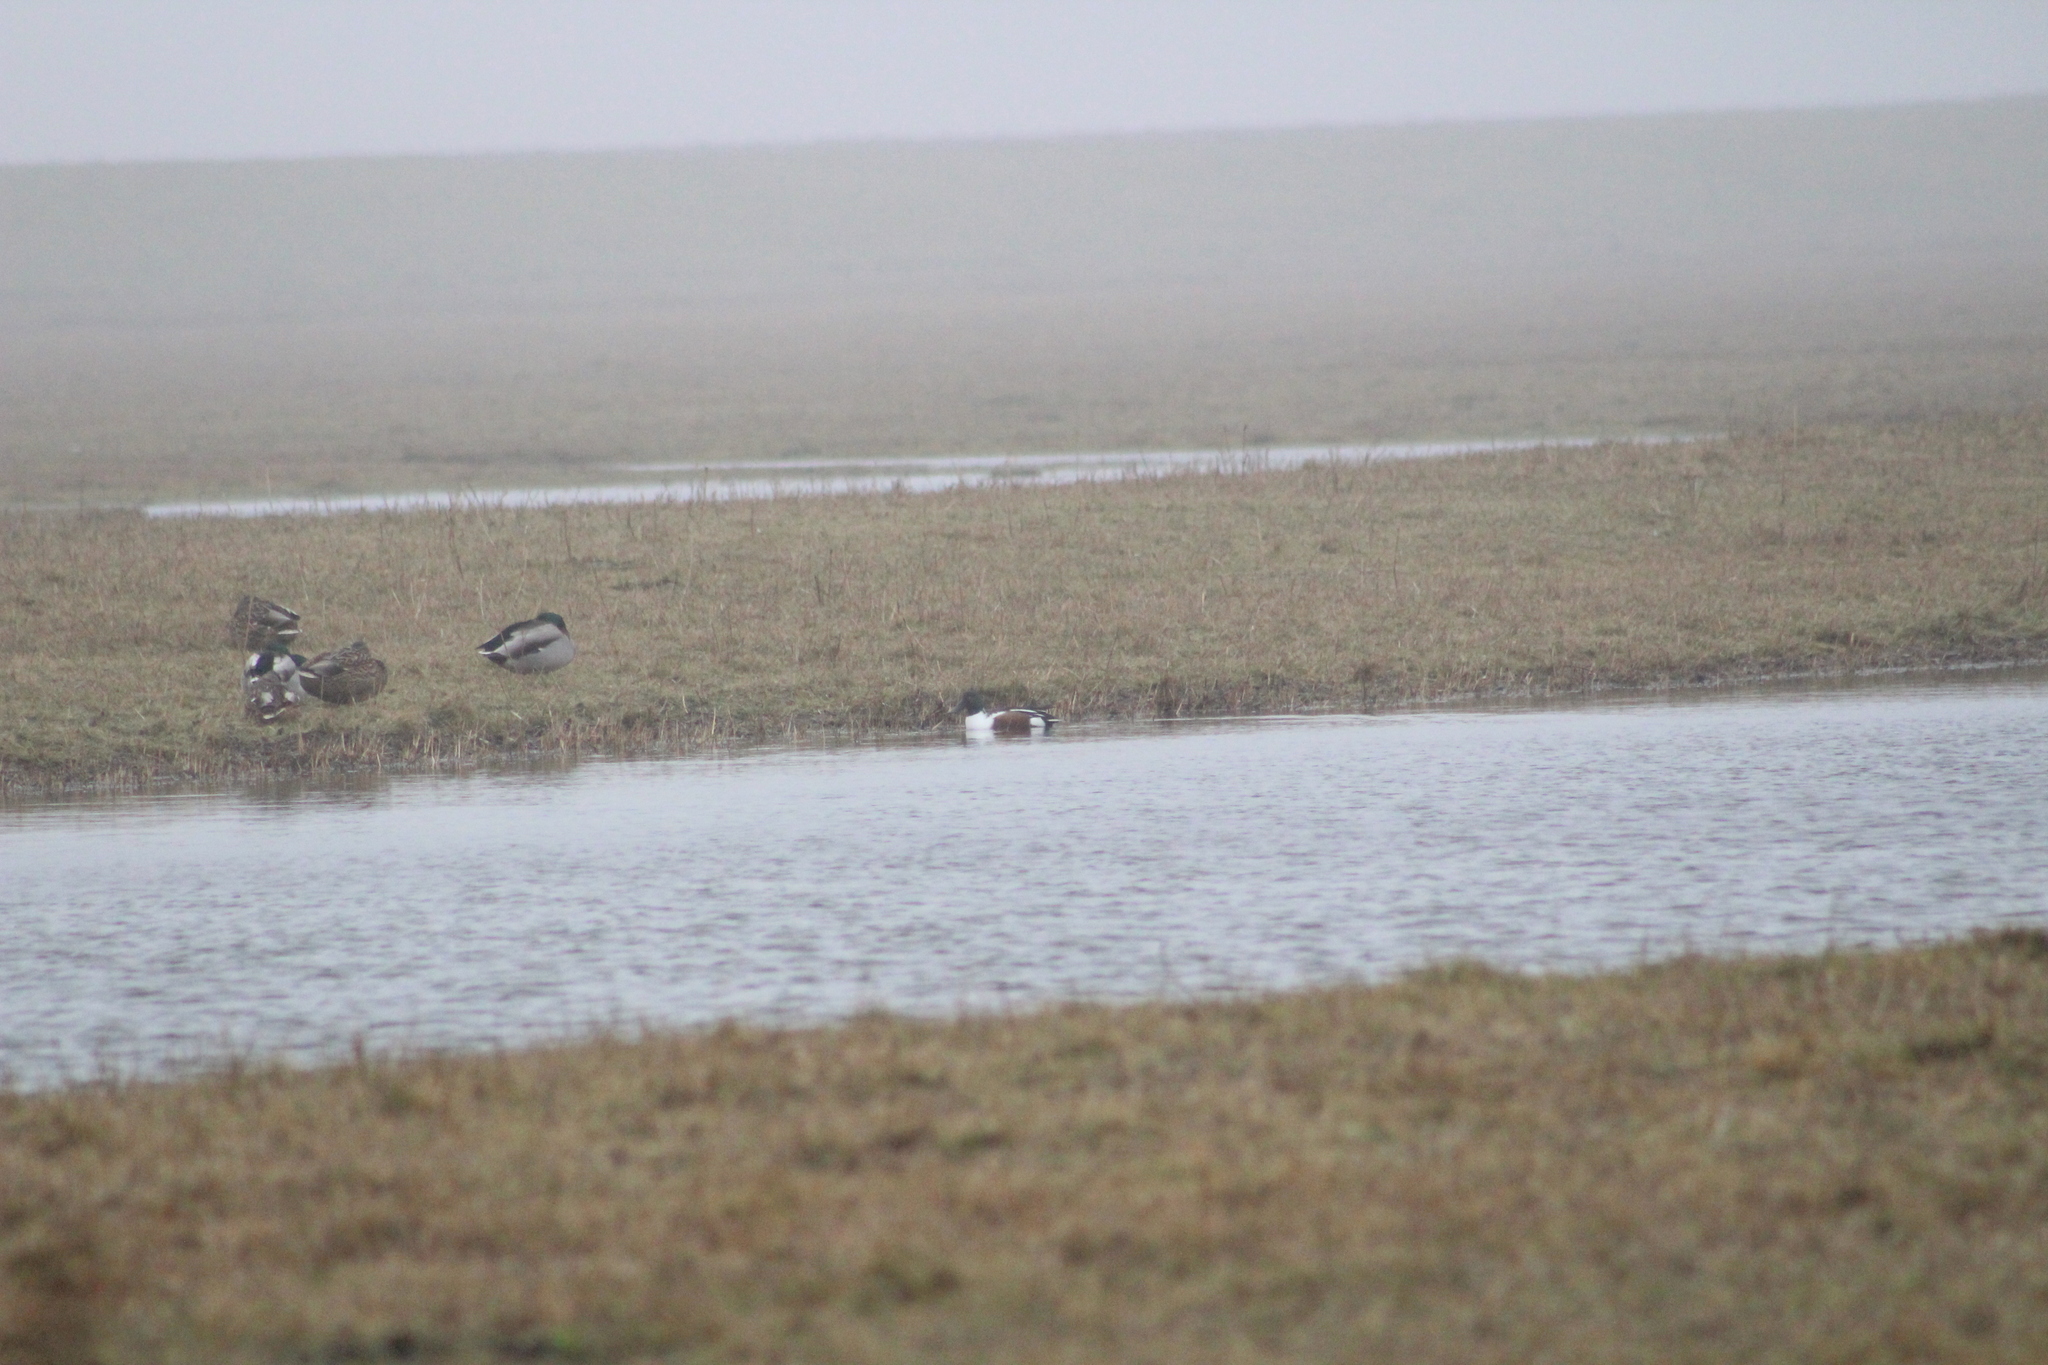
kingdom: Animalia
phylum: Chordata
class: Aves
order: Anseriformes
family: Anatidae
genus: Spatula
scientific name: Spatula clypeata
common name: Northern shoveler
